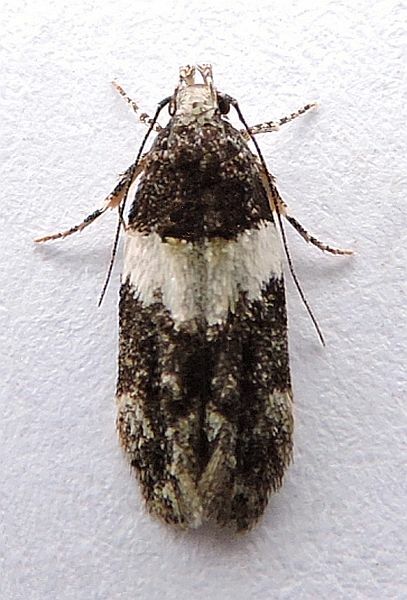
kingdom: Animalia
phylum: Arthropoda
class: Insecta
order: Lepidoptera
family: Gelechiidae
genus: Pubitelphusa
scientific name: Pubitelphusa latifasciella
